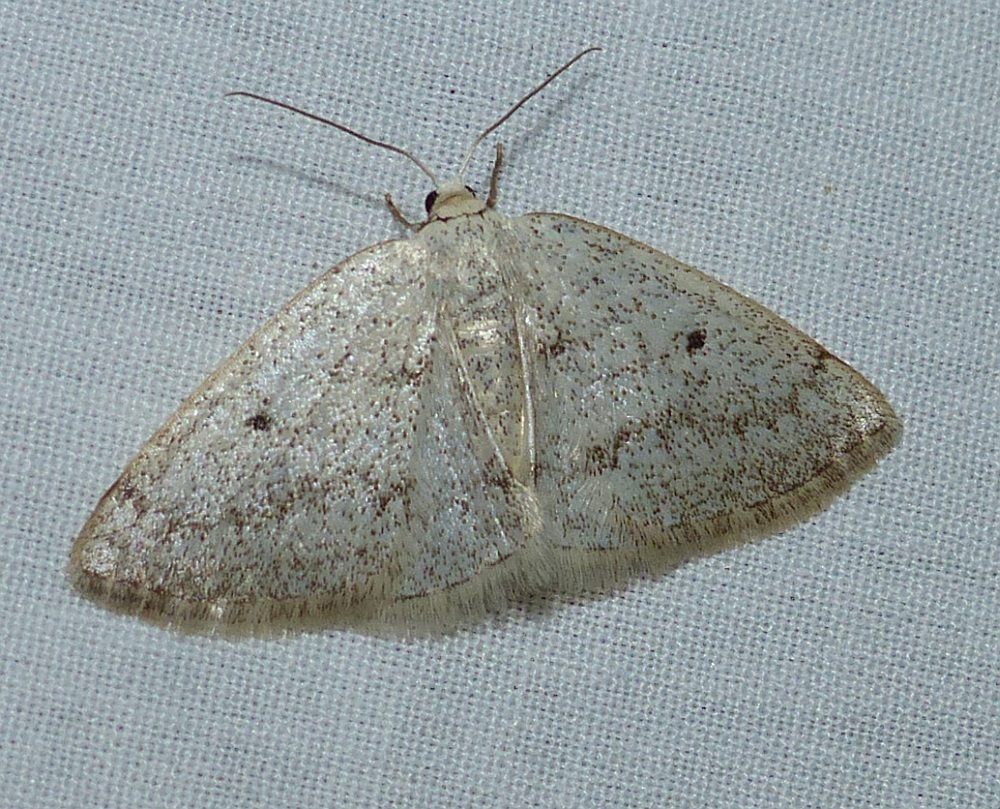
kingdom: Animalia
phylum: Arthropoda
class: Insecta
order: Lepidoptera
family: Geometridae
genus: Lomographa
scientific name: Lomographa glomeraria
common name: Gray spring moth
